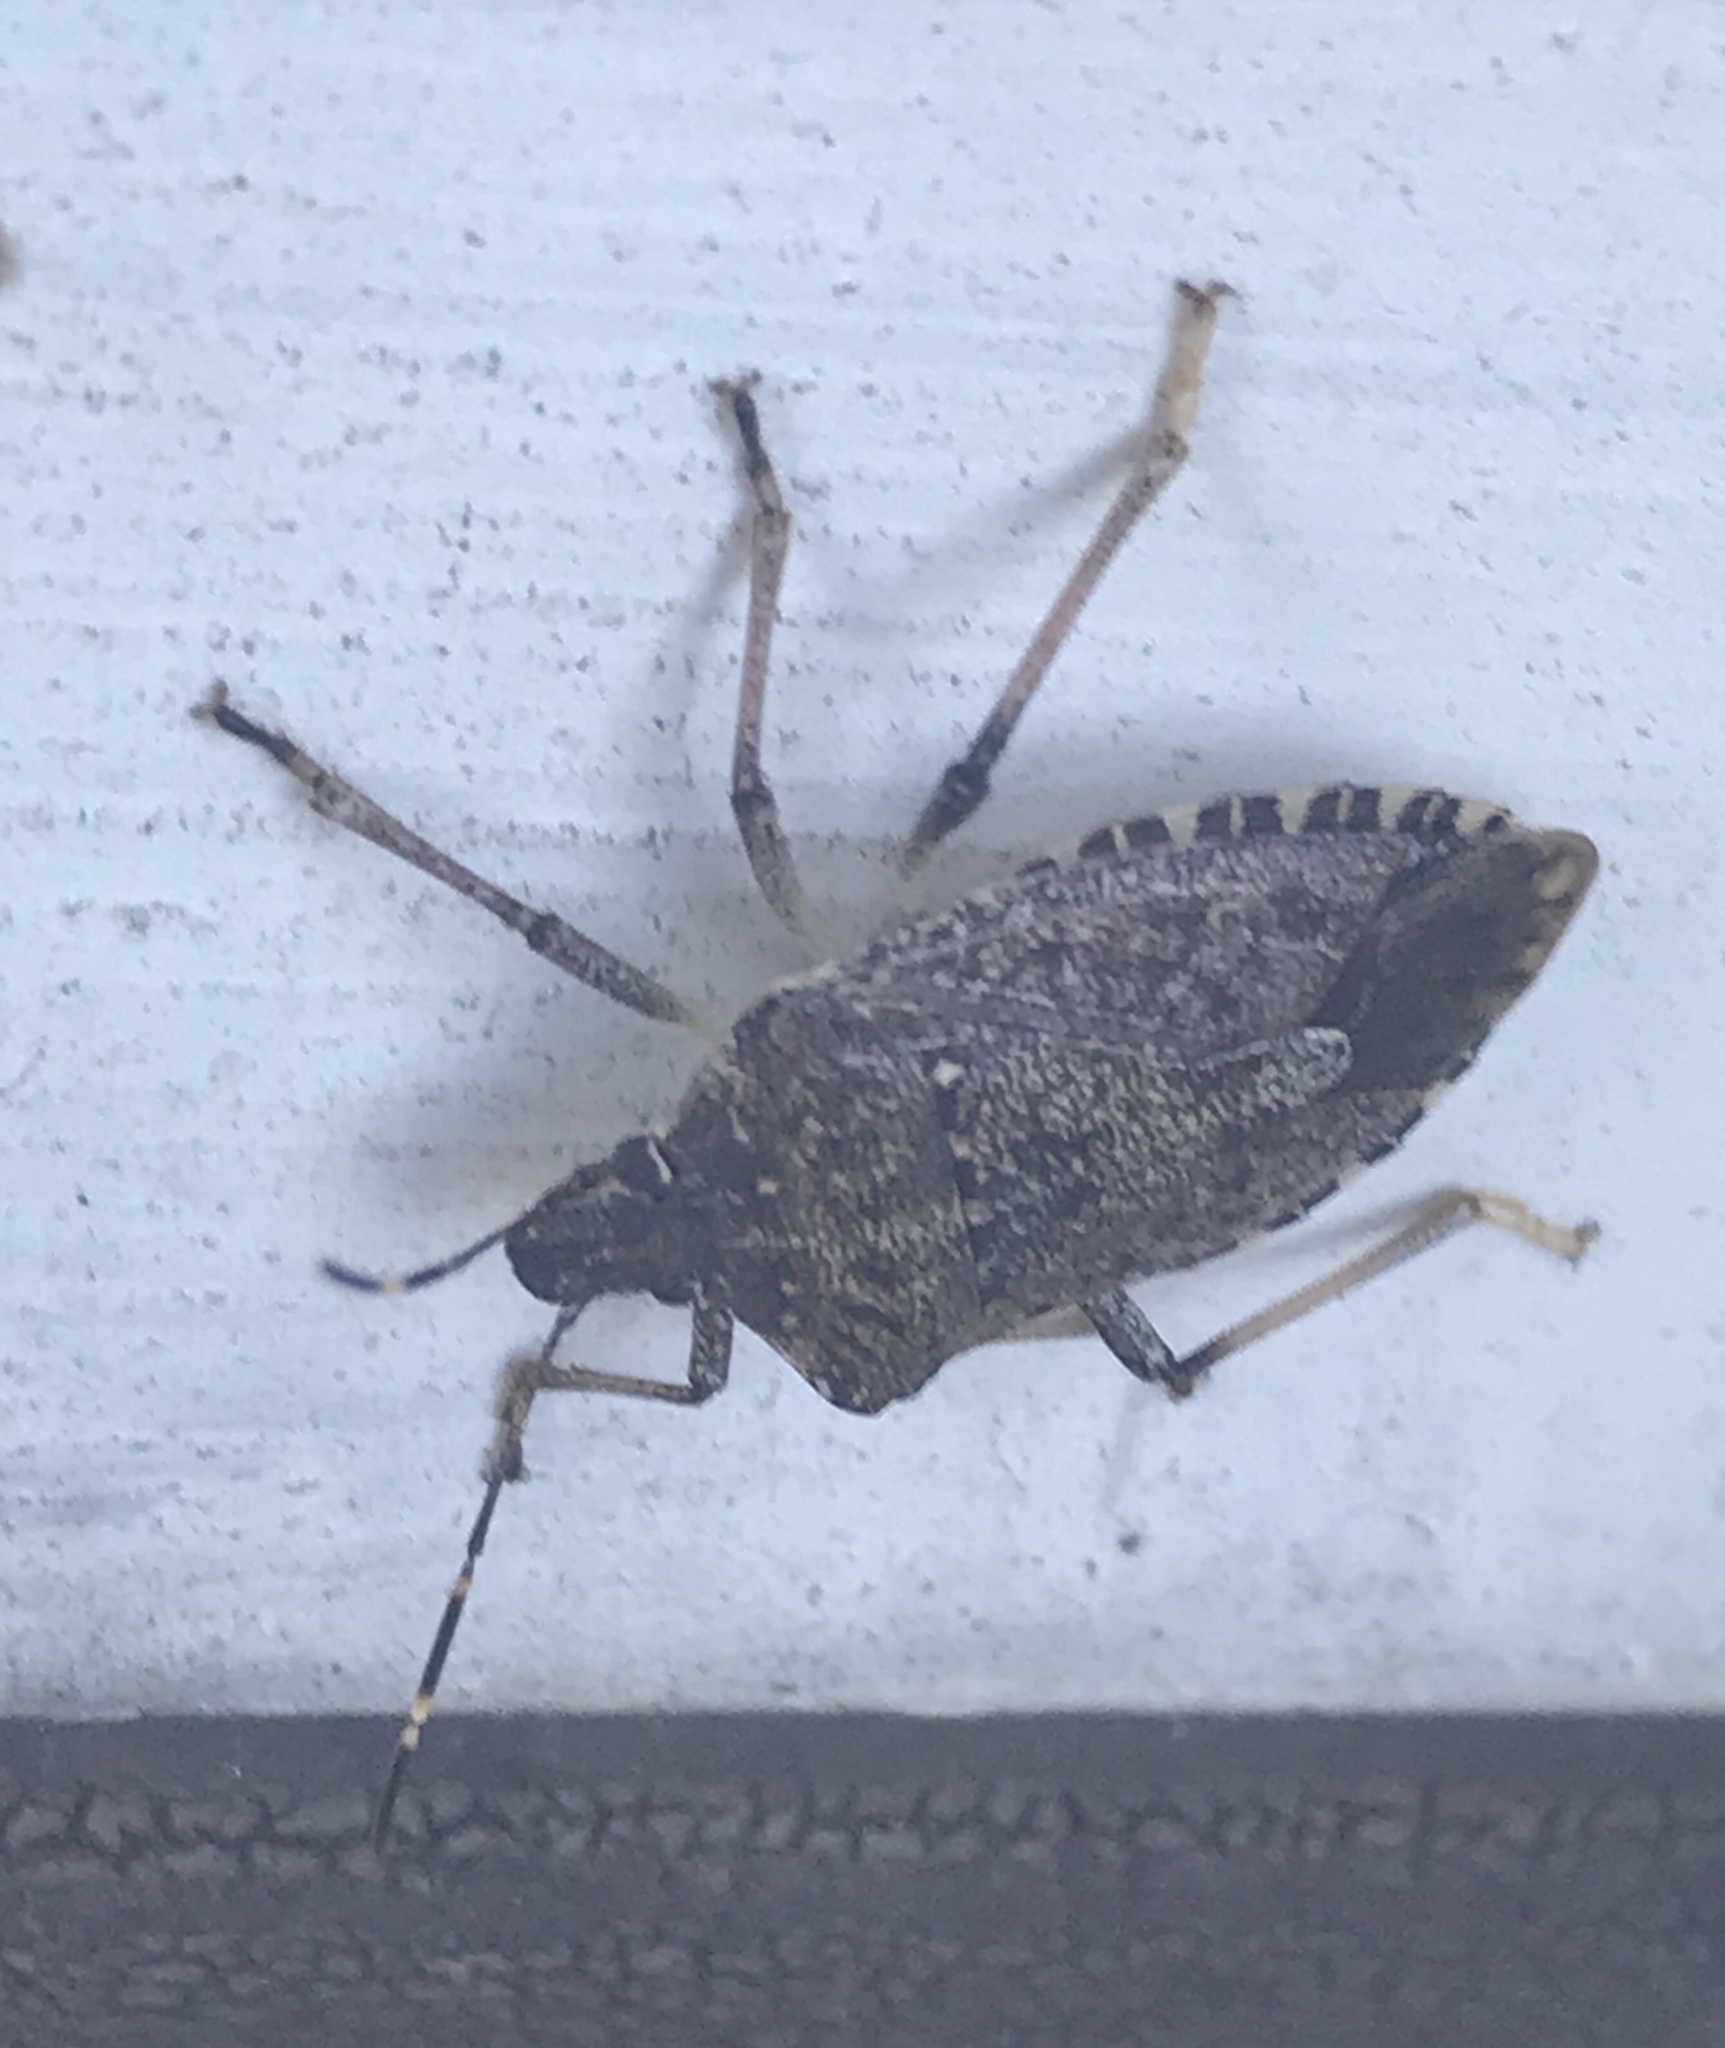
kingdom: Animalia
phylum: Arthropoda
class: Insecta
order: Hemiptera
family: Pentatomidae
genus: Halyomorpha
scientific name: Halyomorpha halys
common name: Brown marmorated stink bug
